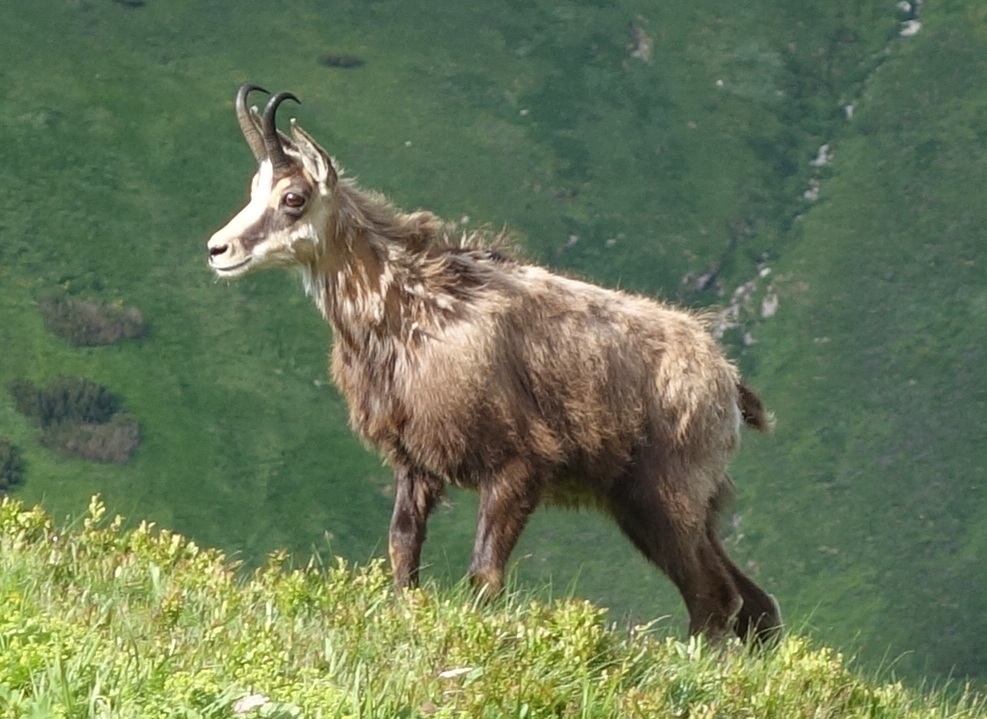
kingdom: Animalia
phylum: Chordata
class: Mammalia
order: Artiodactyla
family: Bovidae
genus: Rupicapra
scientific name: Rupicapra rupicapra
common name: Chamois
